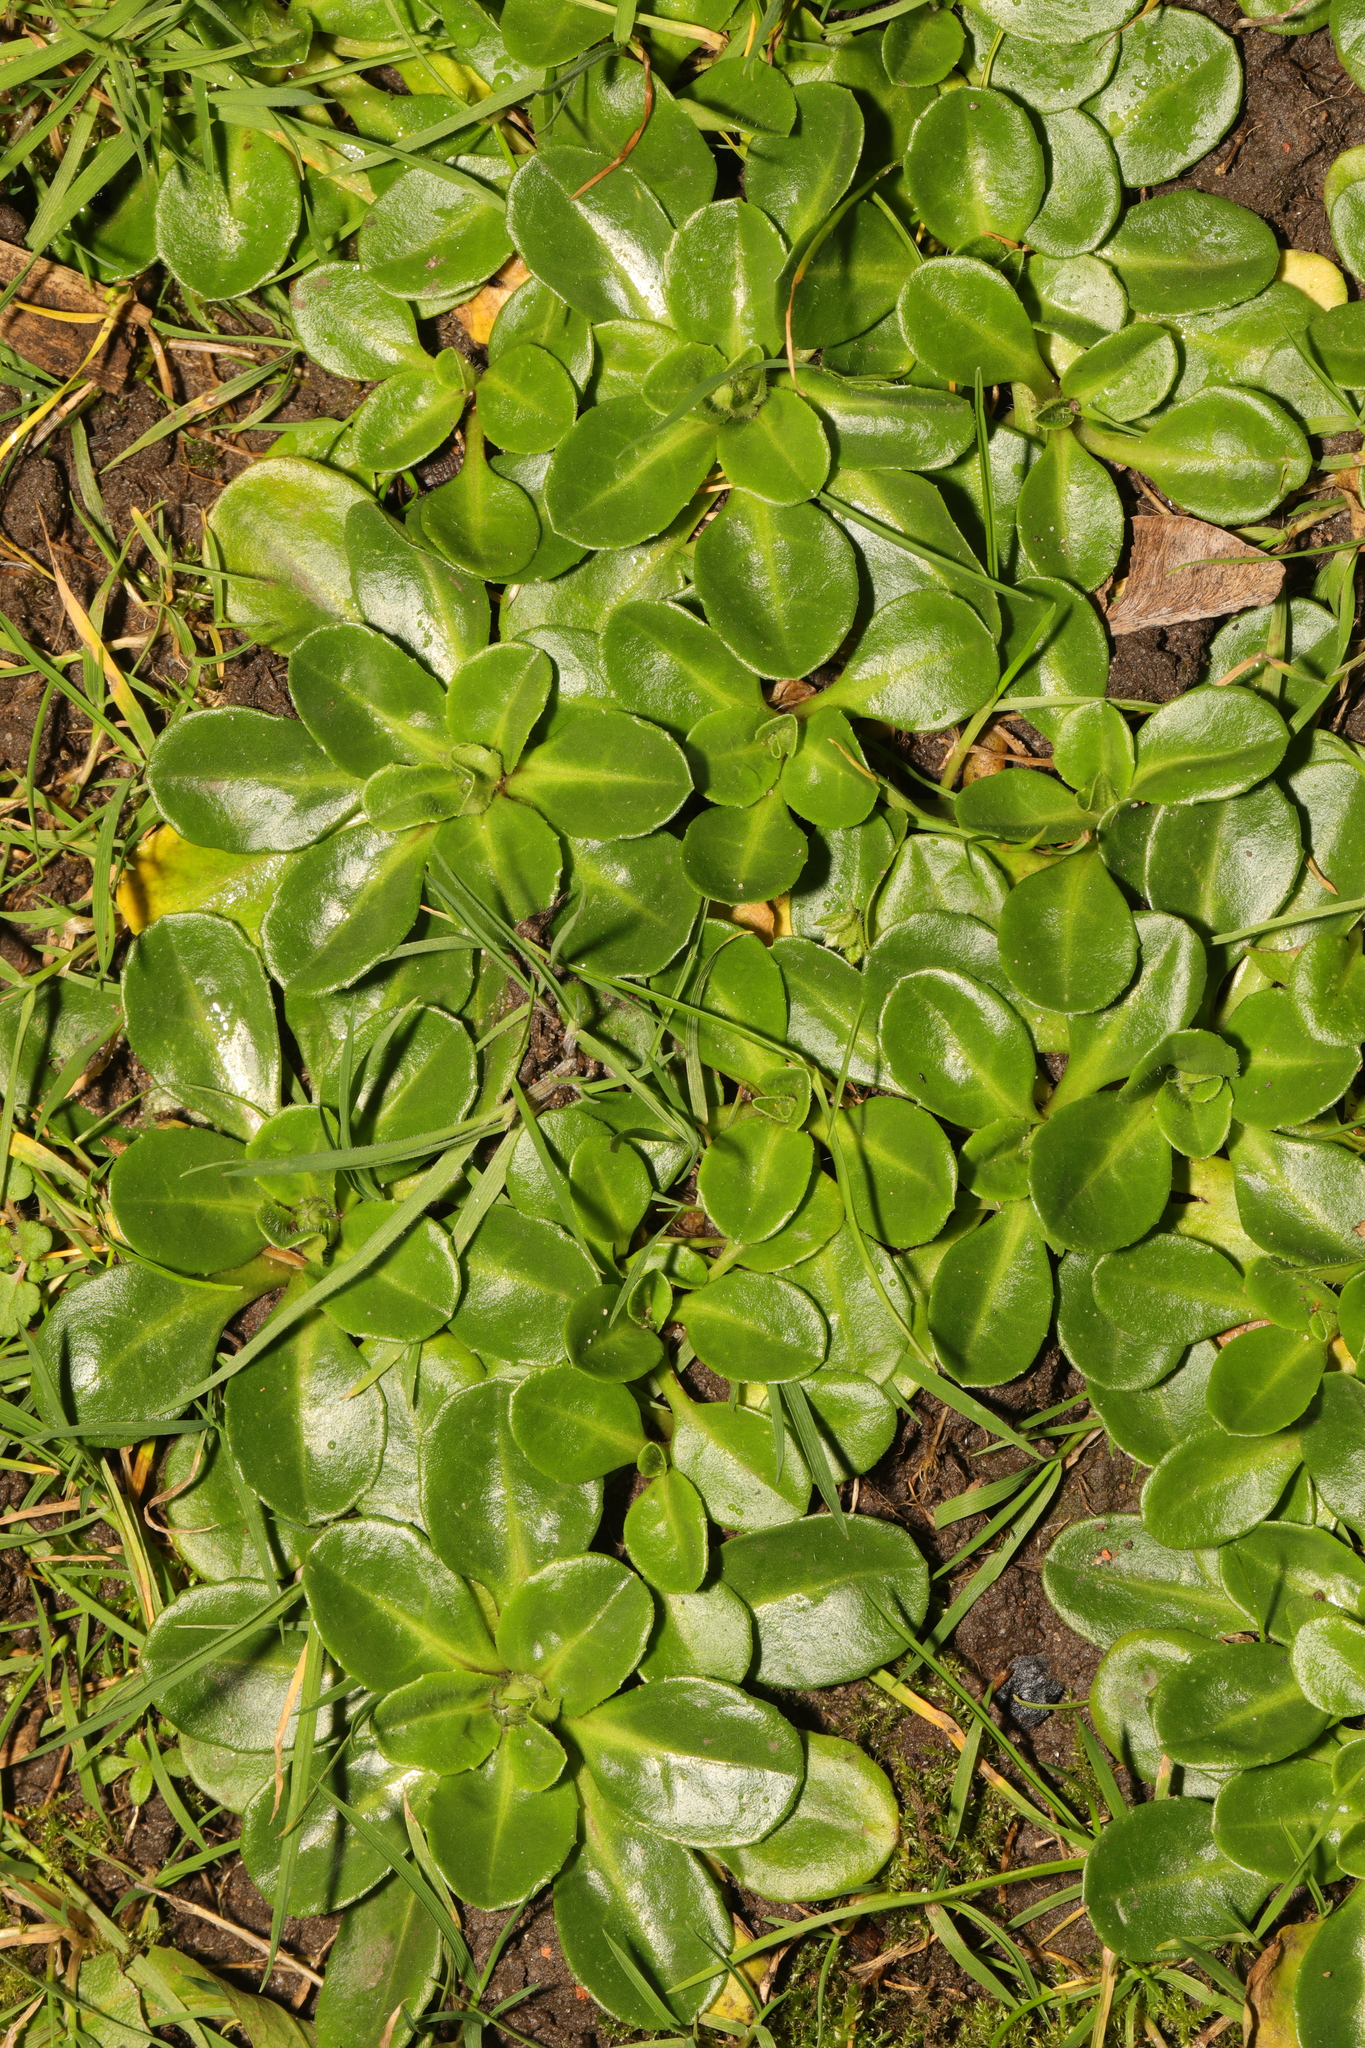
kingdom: Plantae
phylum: Tracheophyta
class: Magnoliopsida
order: Asterales
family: Asteraceae
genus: Bellis
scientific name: Bellis perennis
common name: Lawndaisy
